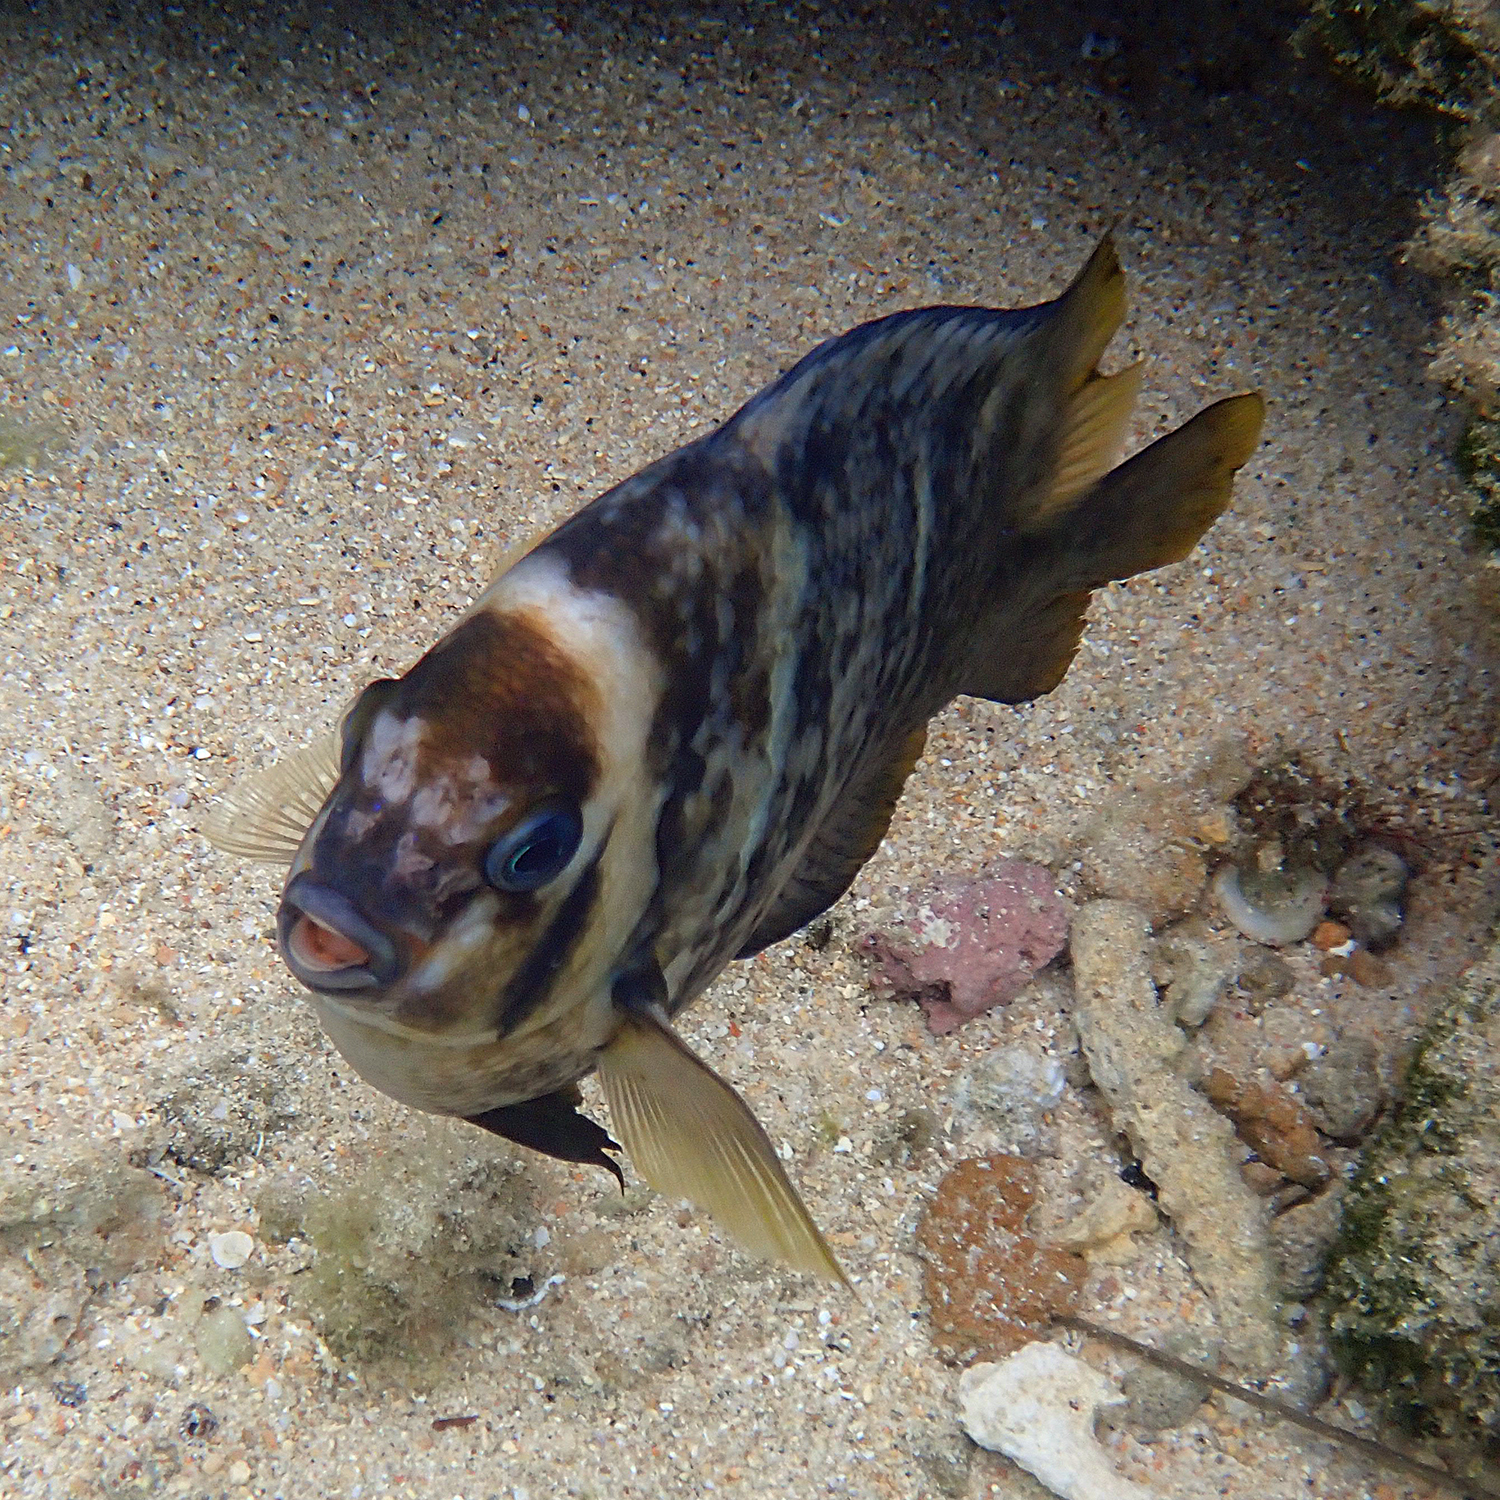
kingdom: Animalia
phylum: Chordata
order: Perciformes
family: Pomacentridae
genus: Parma
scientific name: Parma polylepis
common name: Banded parma
